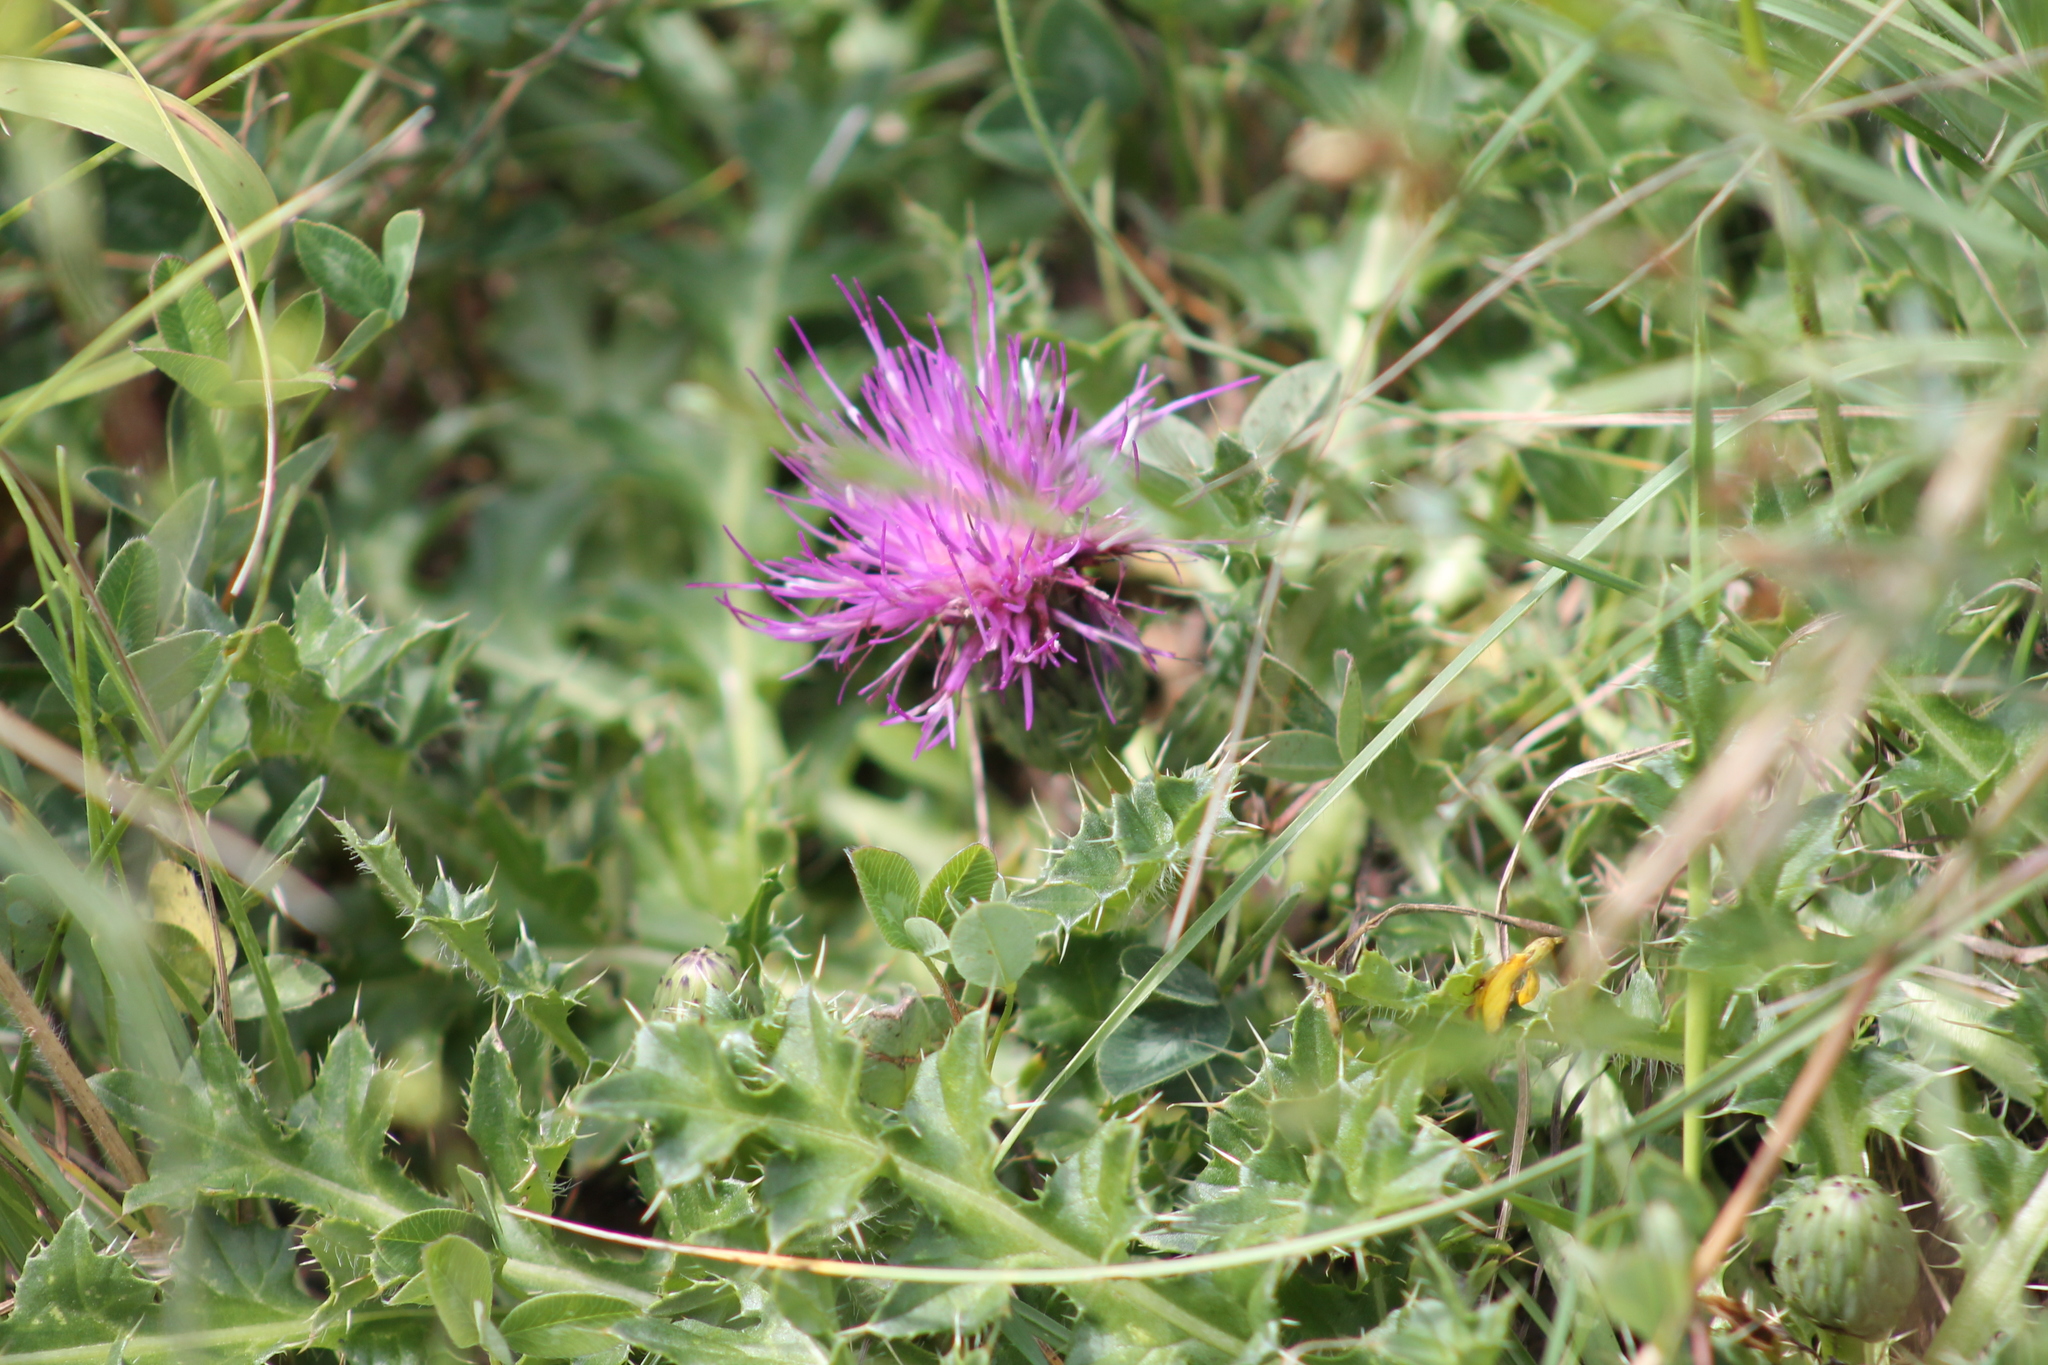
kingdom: Plantae
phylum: Tracheophyta
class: Magnoliopsida
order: Asterales
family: Asteraceae
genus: Cirsium
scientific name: Cirsium acaulon
